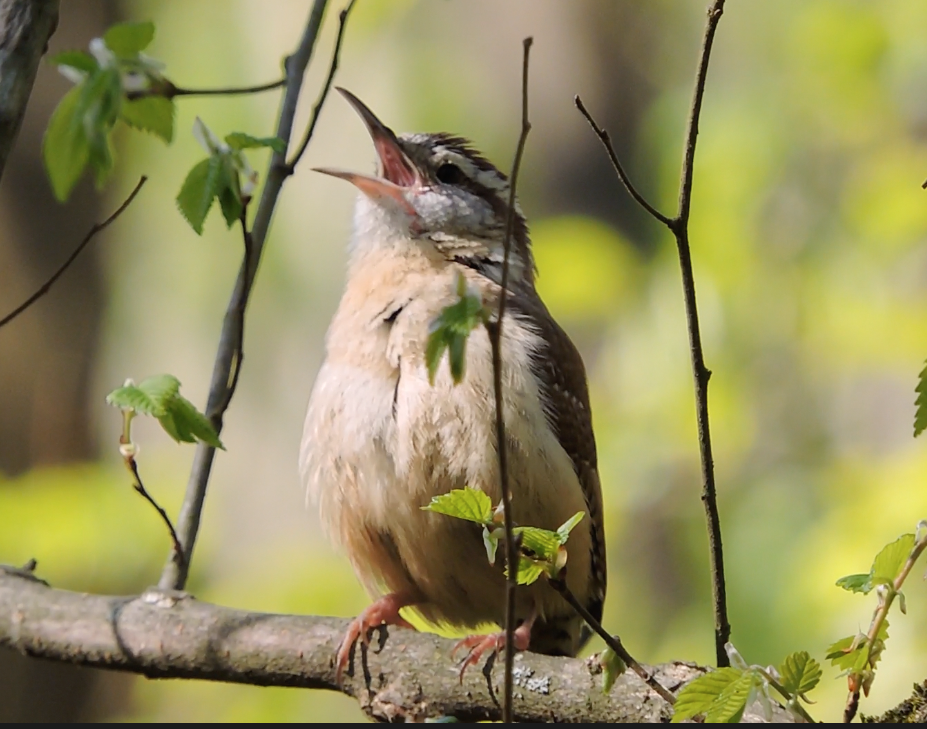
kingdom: Animalia
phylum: Chordata
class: Aves
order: Passeriformes
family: Troglodytidae
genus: Thryothorus
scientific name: Thryothorus ludovicianus
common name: Carolina wren
